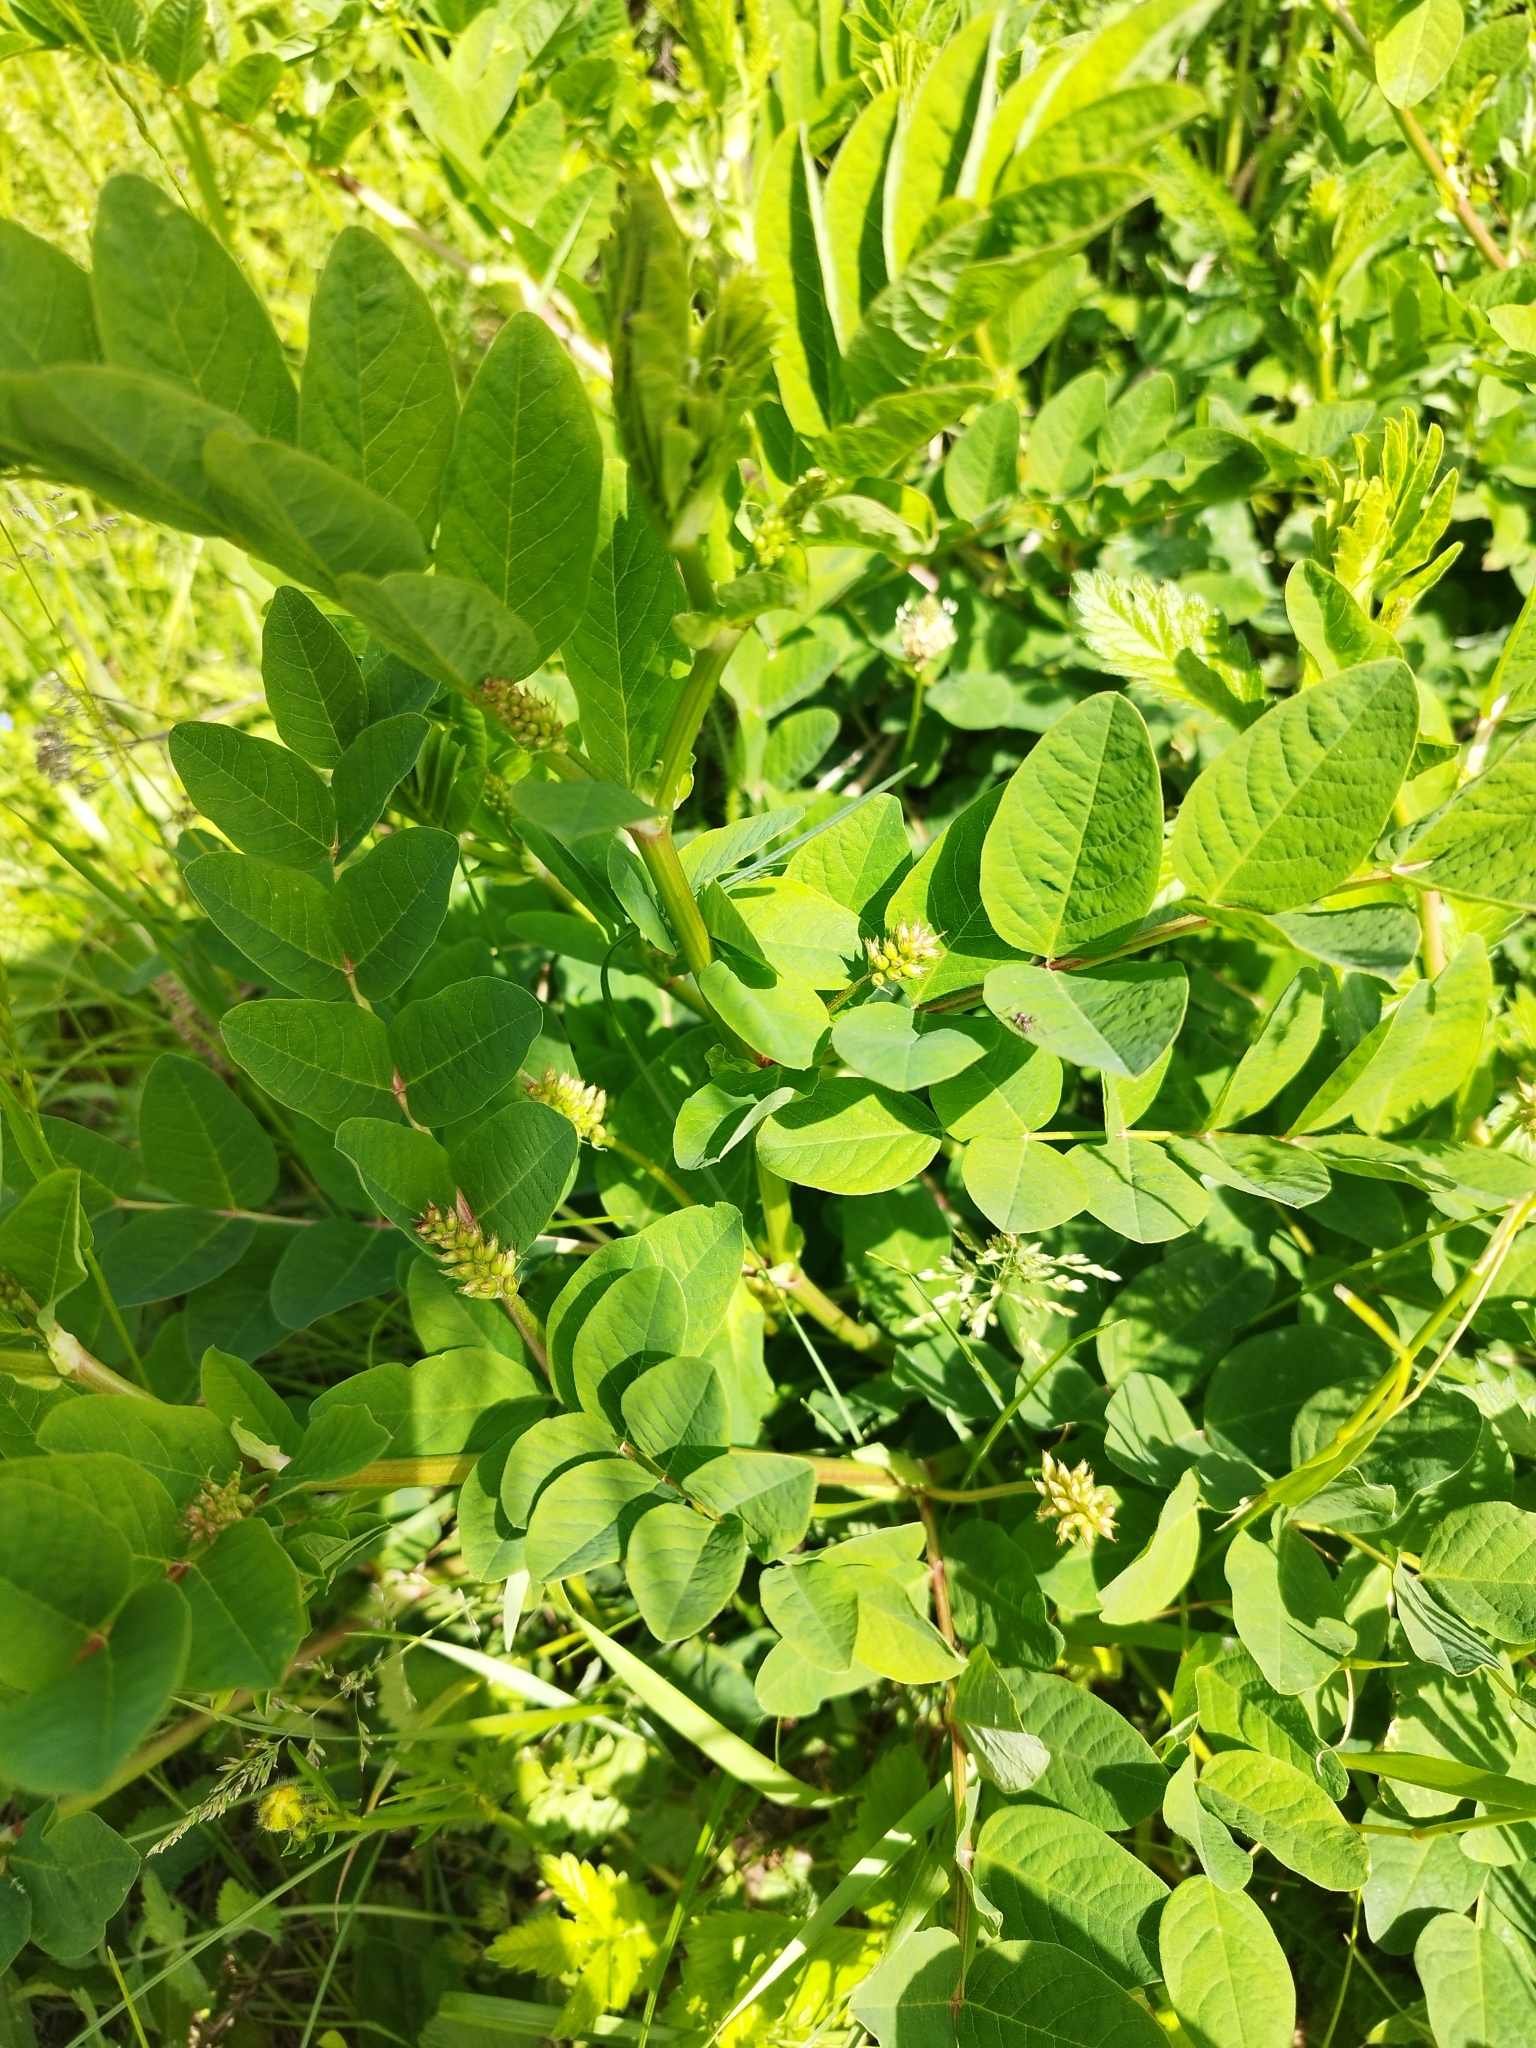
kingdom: Plantae
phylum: Tracheophyta
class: Magnoliopsida
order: Fabales
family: Fabaceae
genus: Astragalus
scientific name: Astragalus glycyphyllos
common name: Wild liquorice
